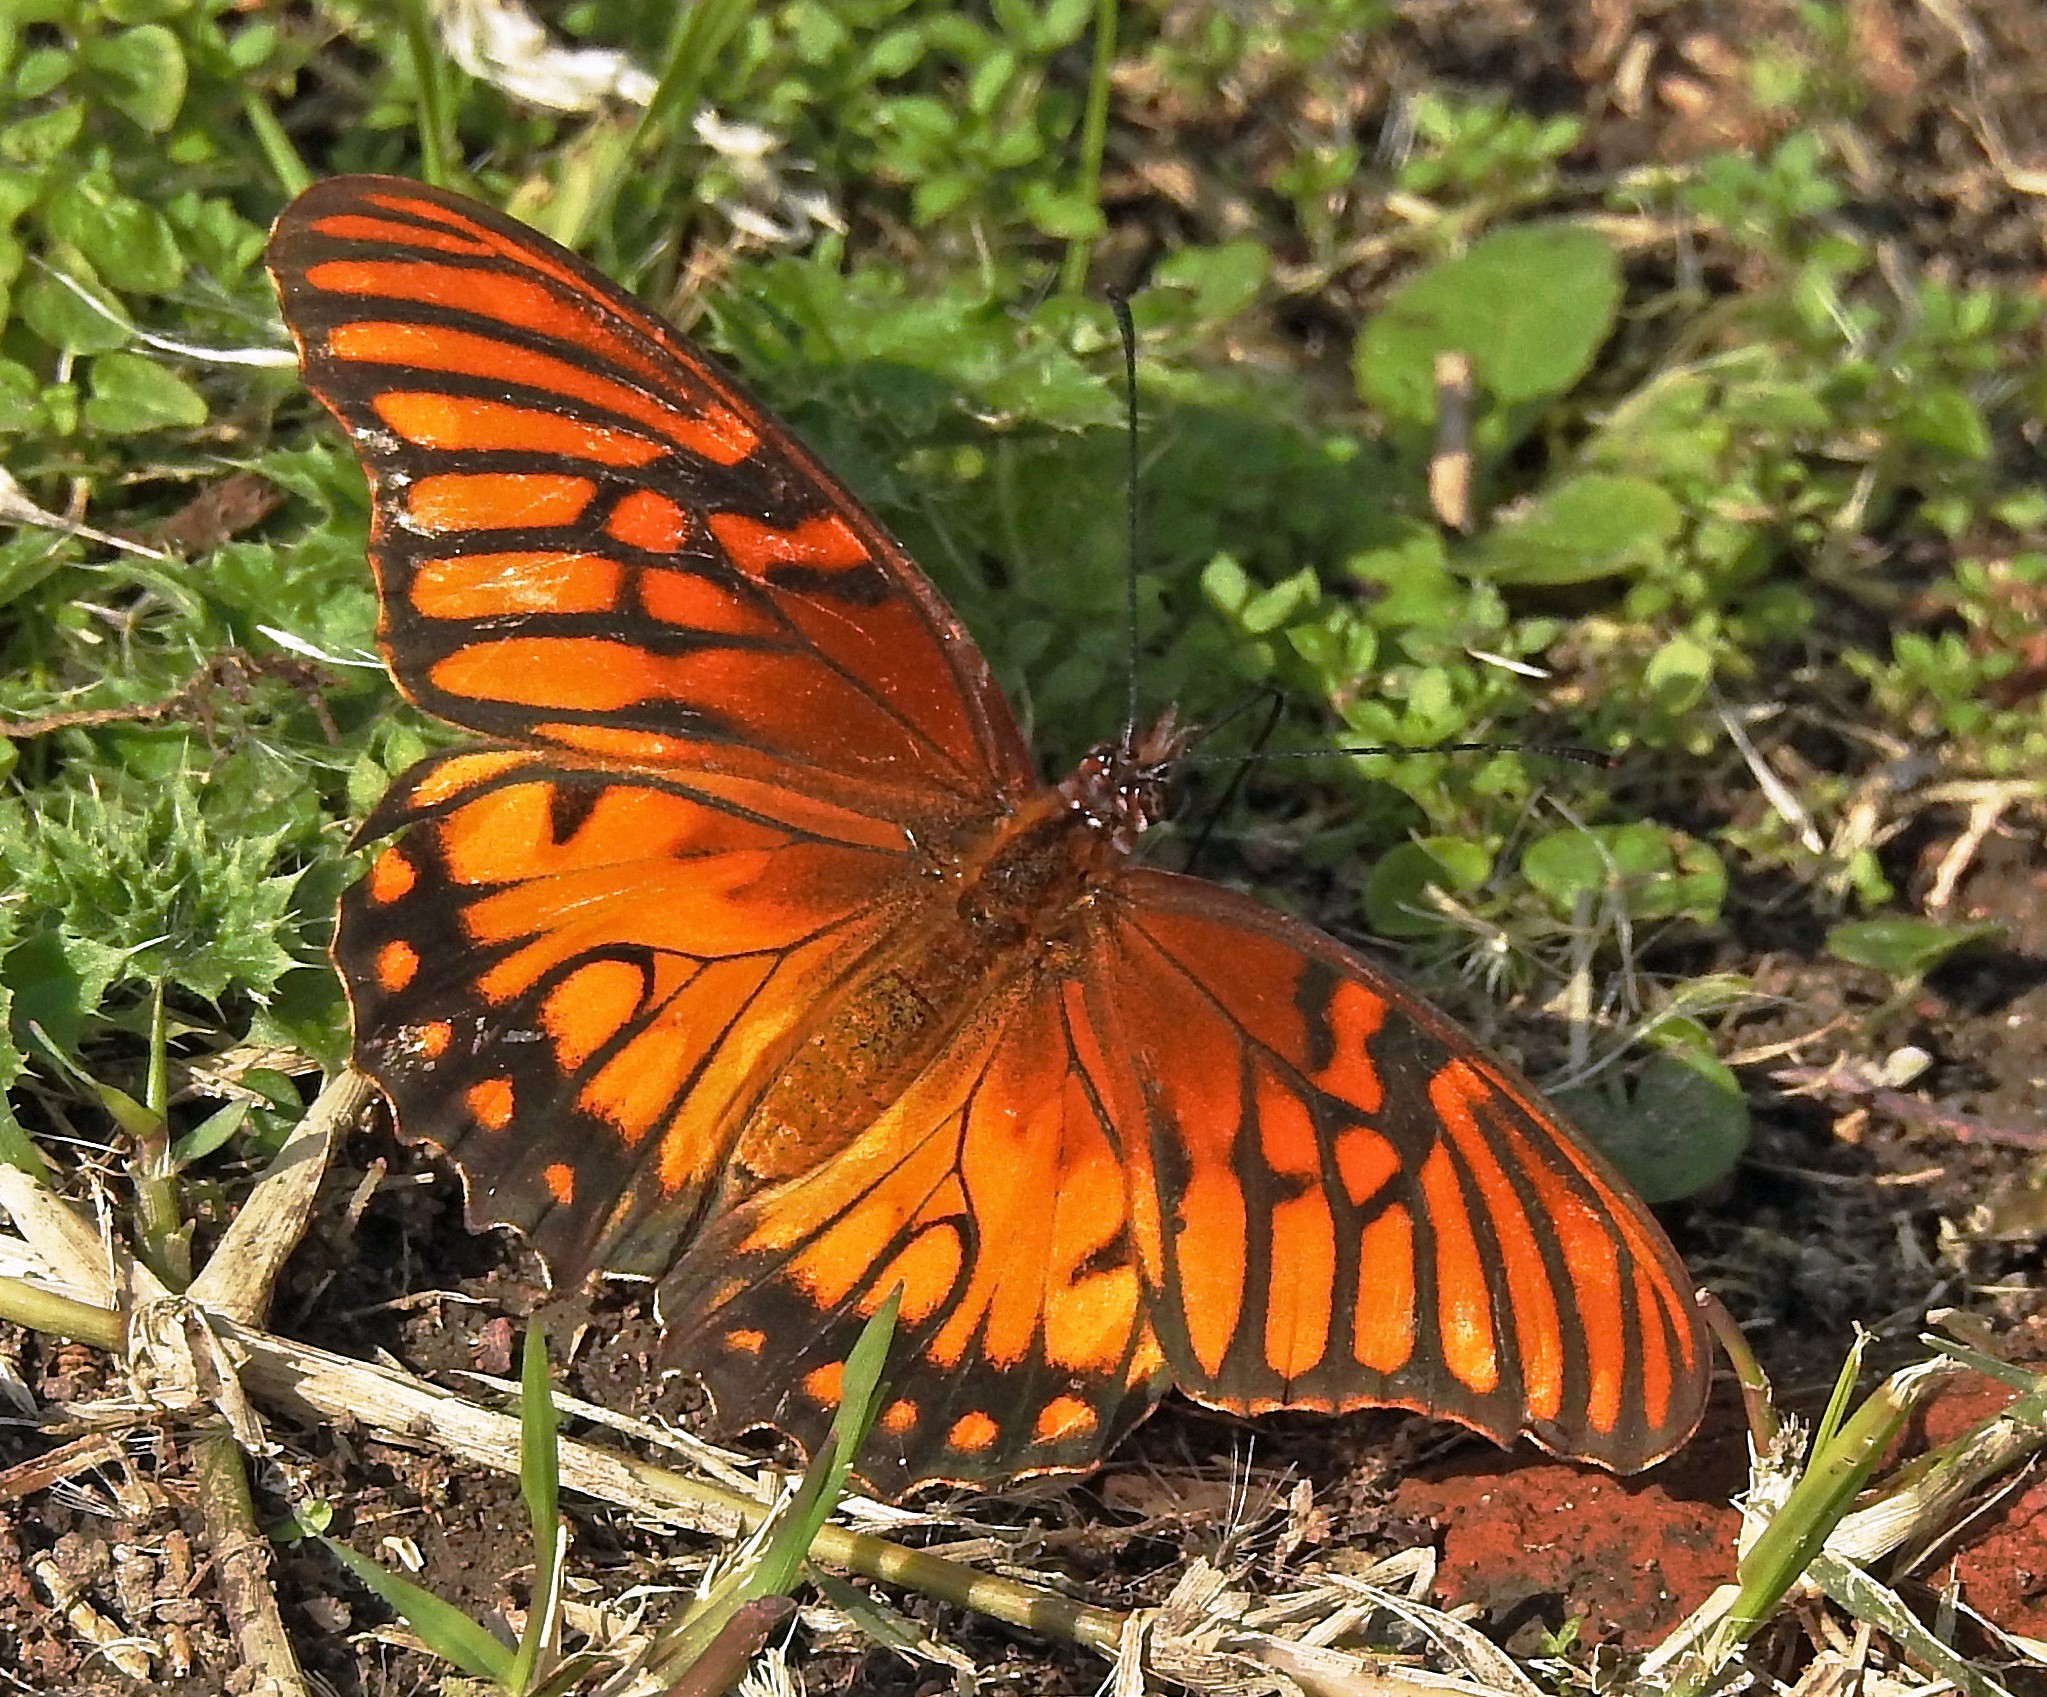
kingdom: Animalia
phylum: Arthropoda
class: Insecta
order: Lepidoptera
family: Nymphalidae
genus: Dione
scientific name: Dione moneta
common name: Mexican silverspot
